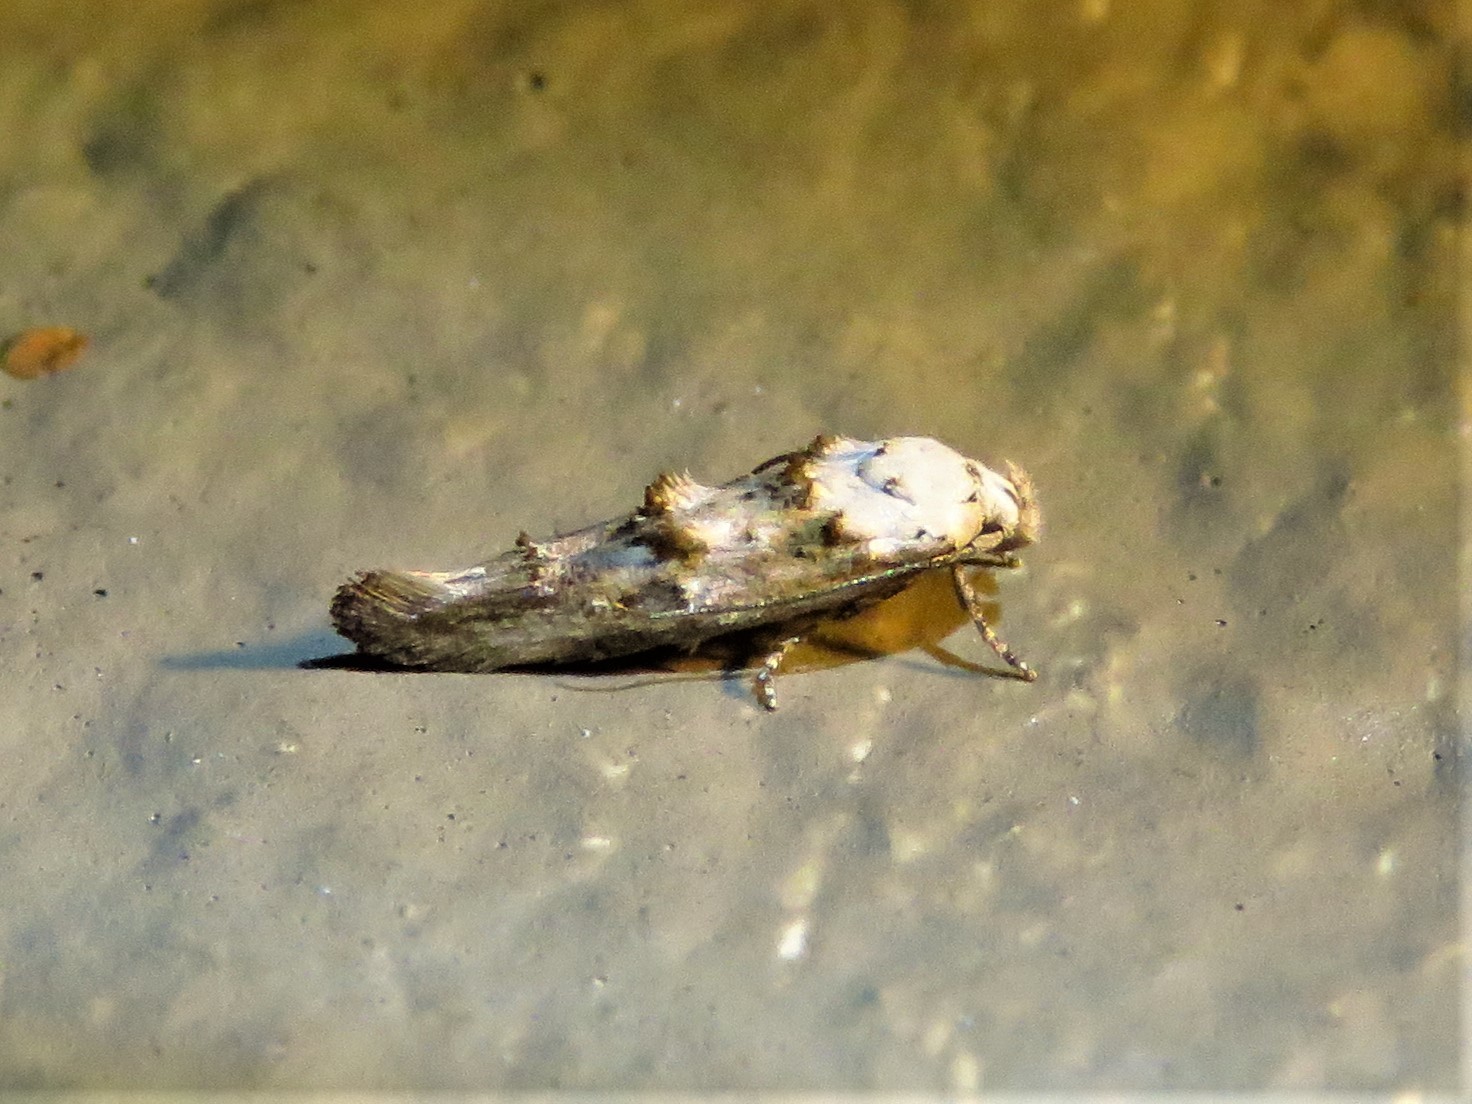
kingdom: Animalia
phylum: Arthropoda
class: Insecta
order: Lepidoptera
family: Momphidae
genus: Mompha
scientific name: Mompha albocapitella
